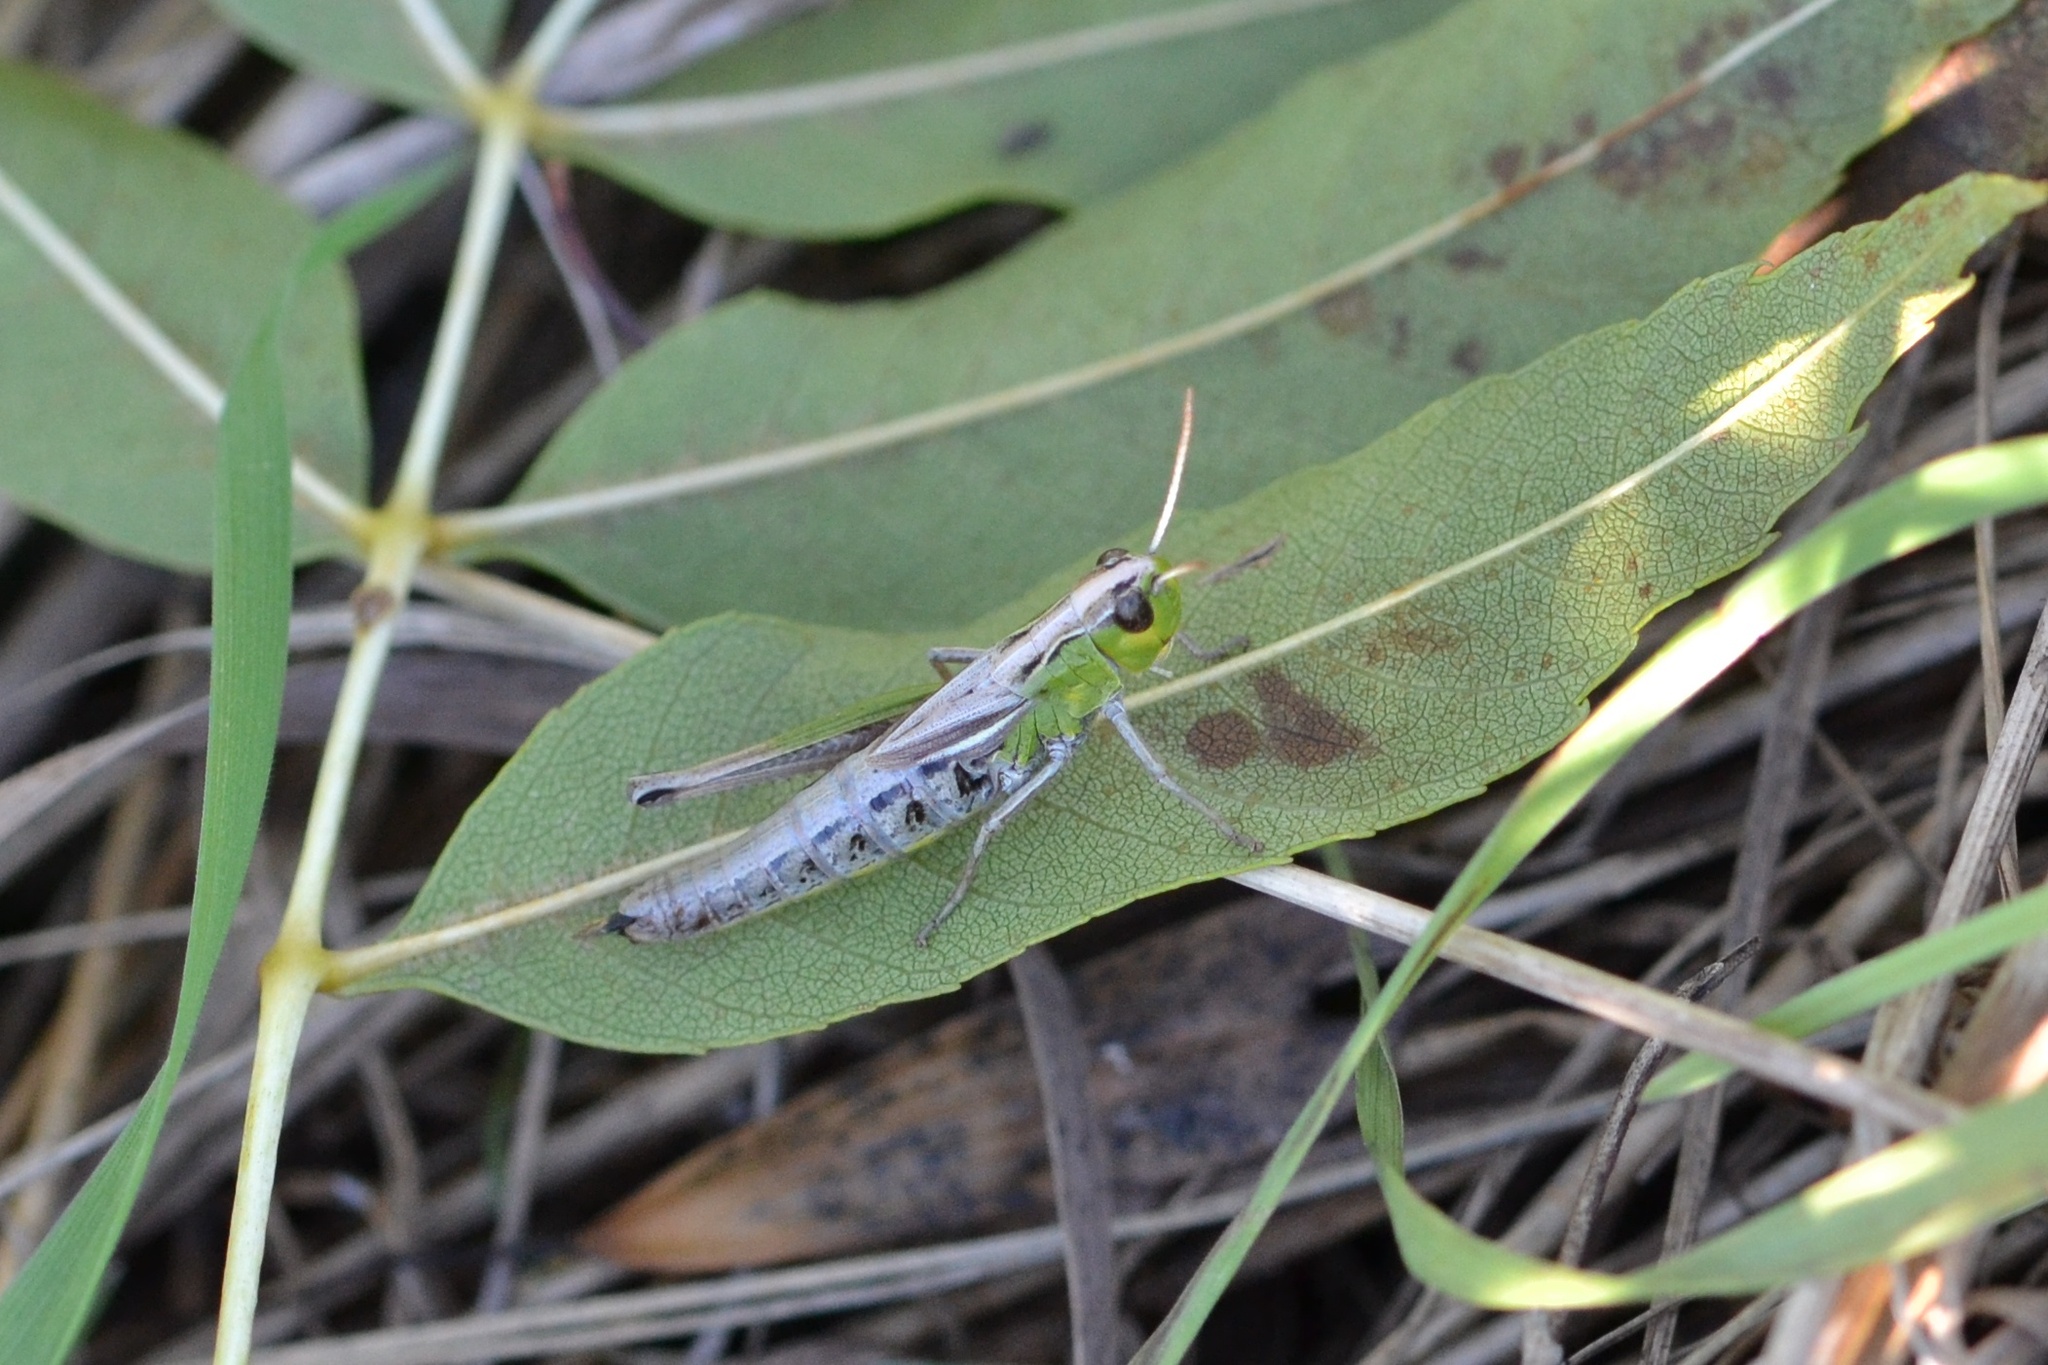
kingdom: Animalia
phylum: Arthropoda
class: Insecta
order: Orthoptera
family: Acrididae
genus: Pseudochorthippus
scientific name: Pseudochorthippus parallelus
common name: Meadow grasshopper
